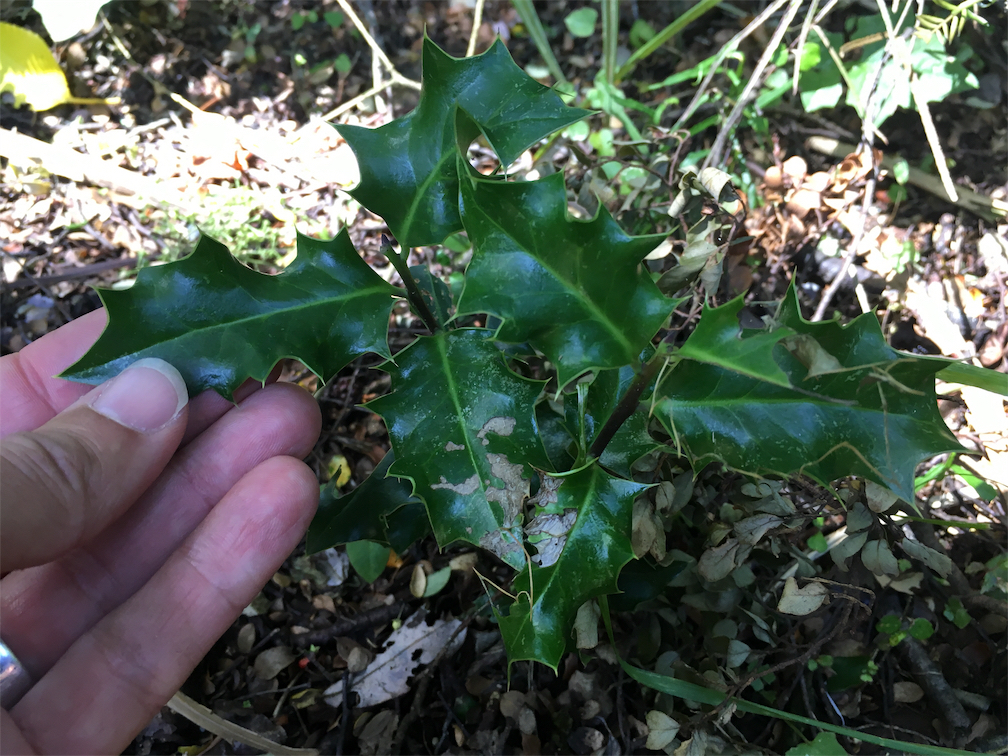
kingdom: Plantae
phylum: Tracheophyta
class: Magnoliopsida
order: Aquifoliales
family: Aquifoliaceae
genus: Ilex
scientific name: Ilex aquifolium
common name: English holly
